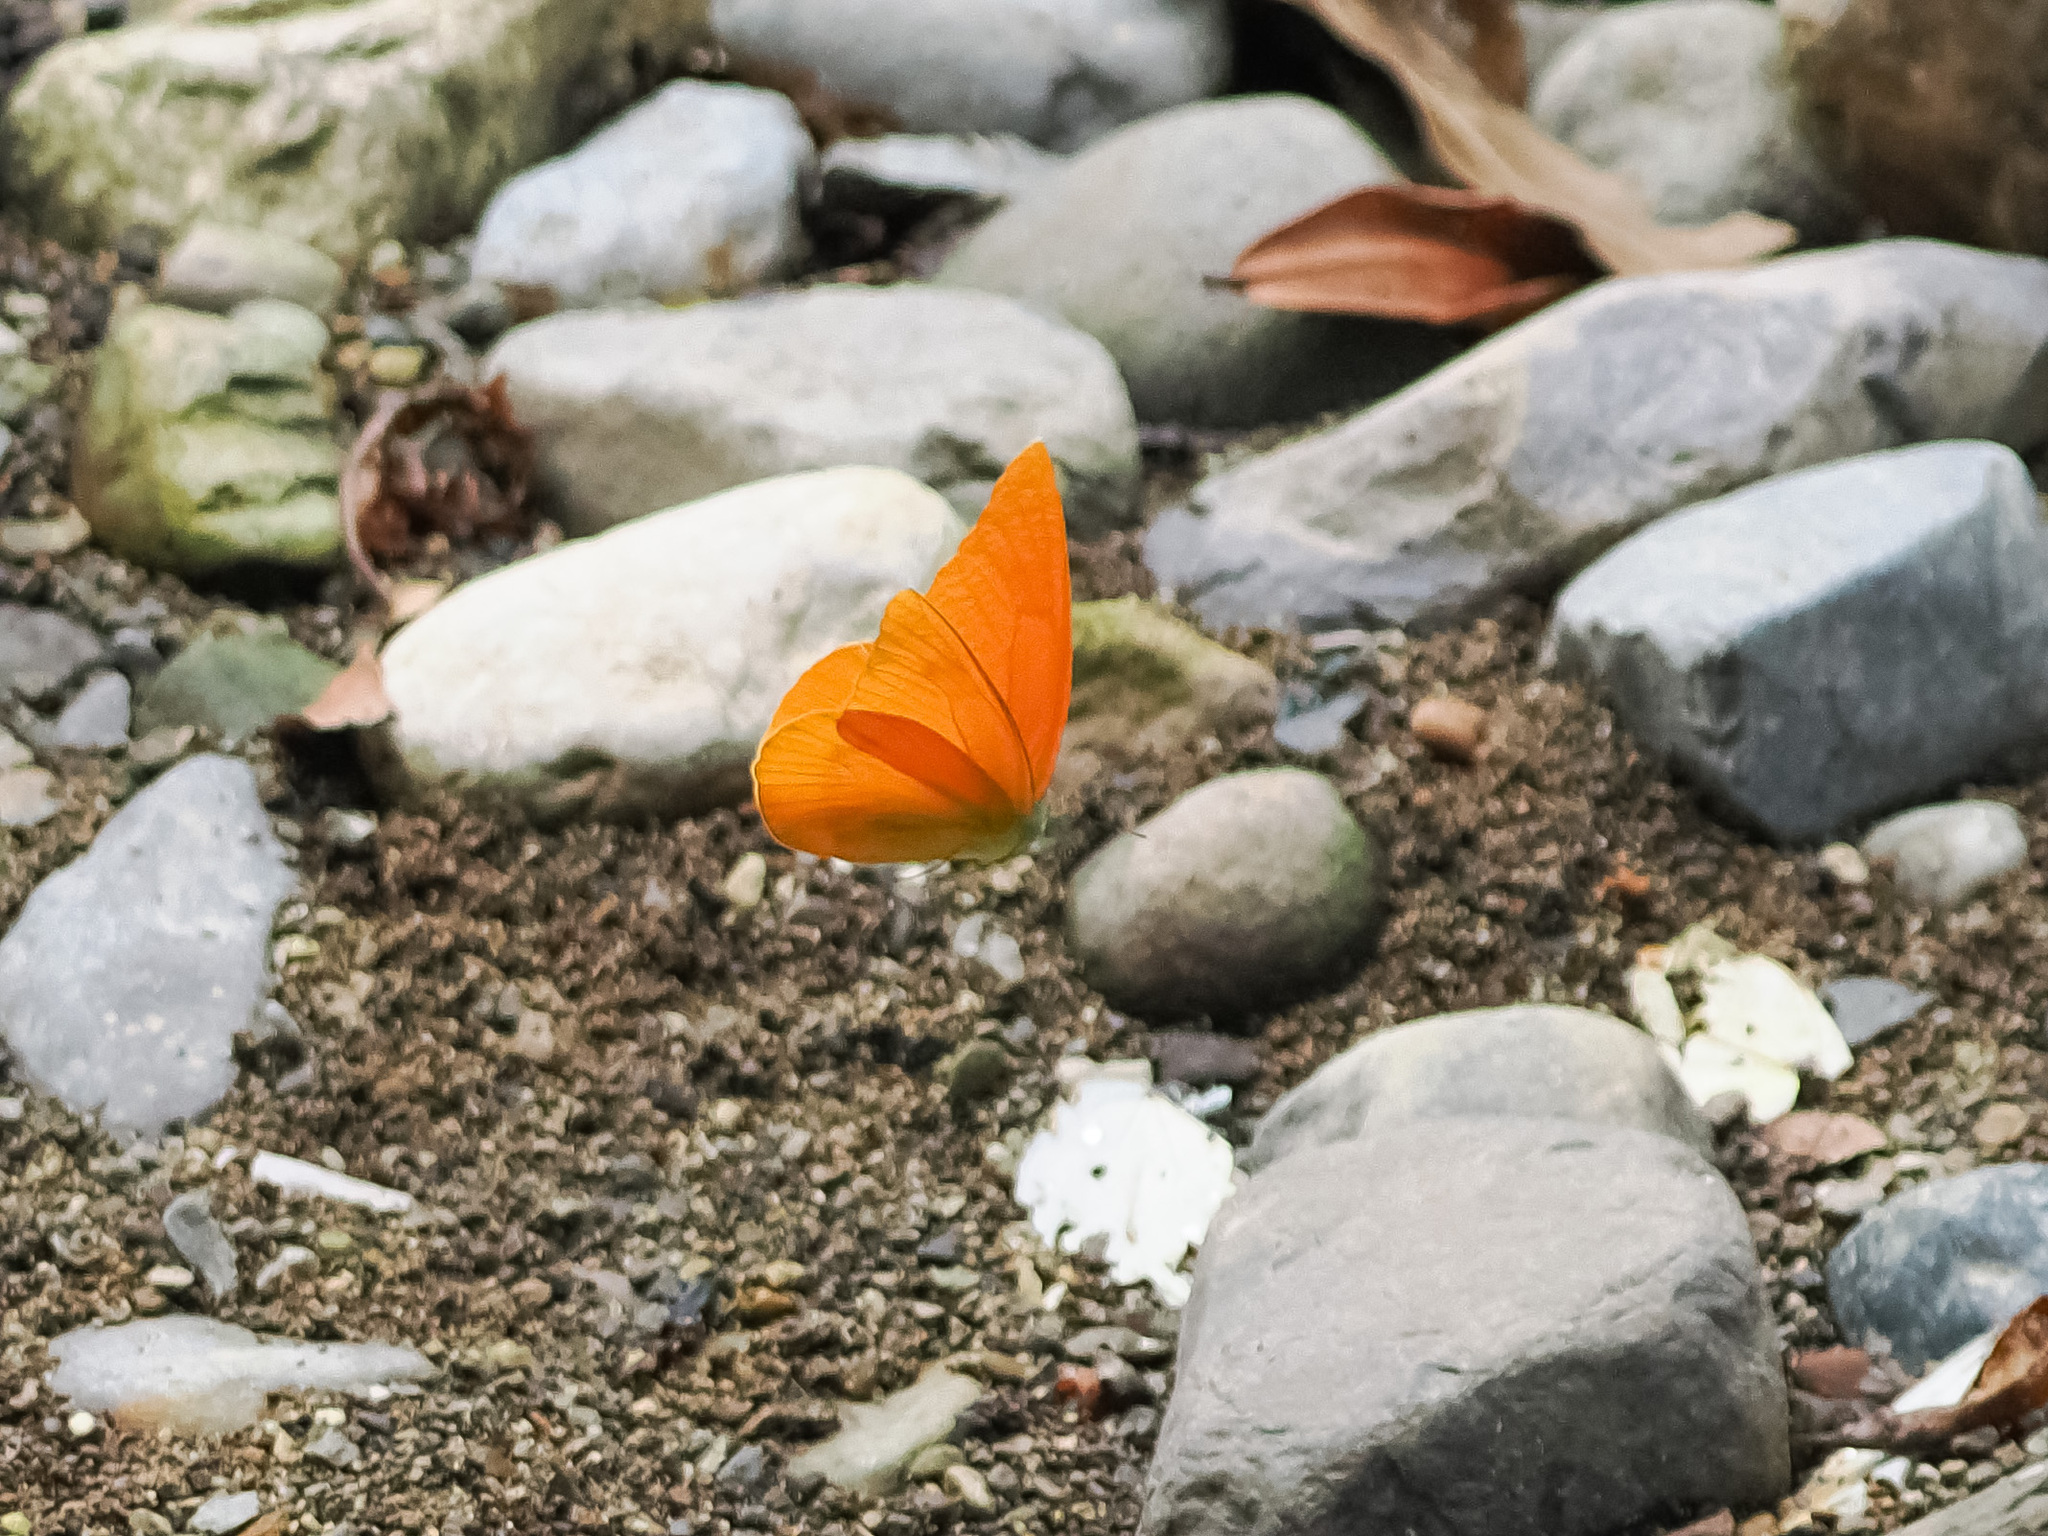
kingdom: Animalia
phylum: Arthropoda
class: Insecta
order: Lepidoptera
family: Pieridae
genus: Appias
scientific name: Appias zarinda
